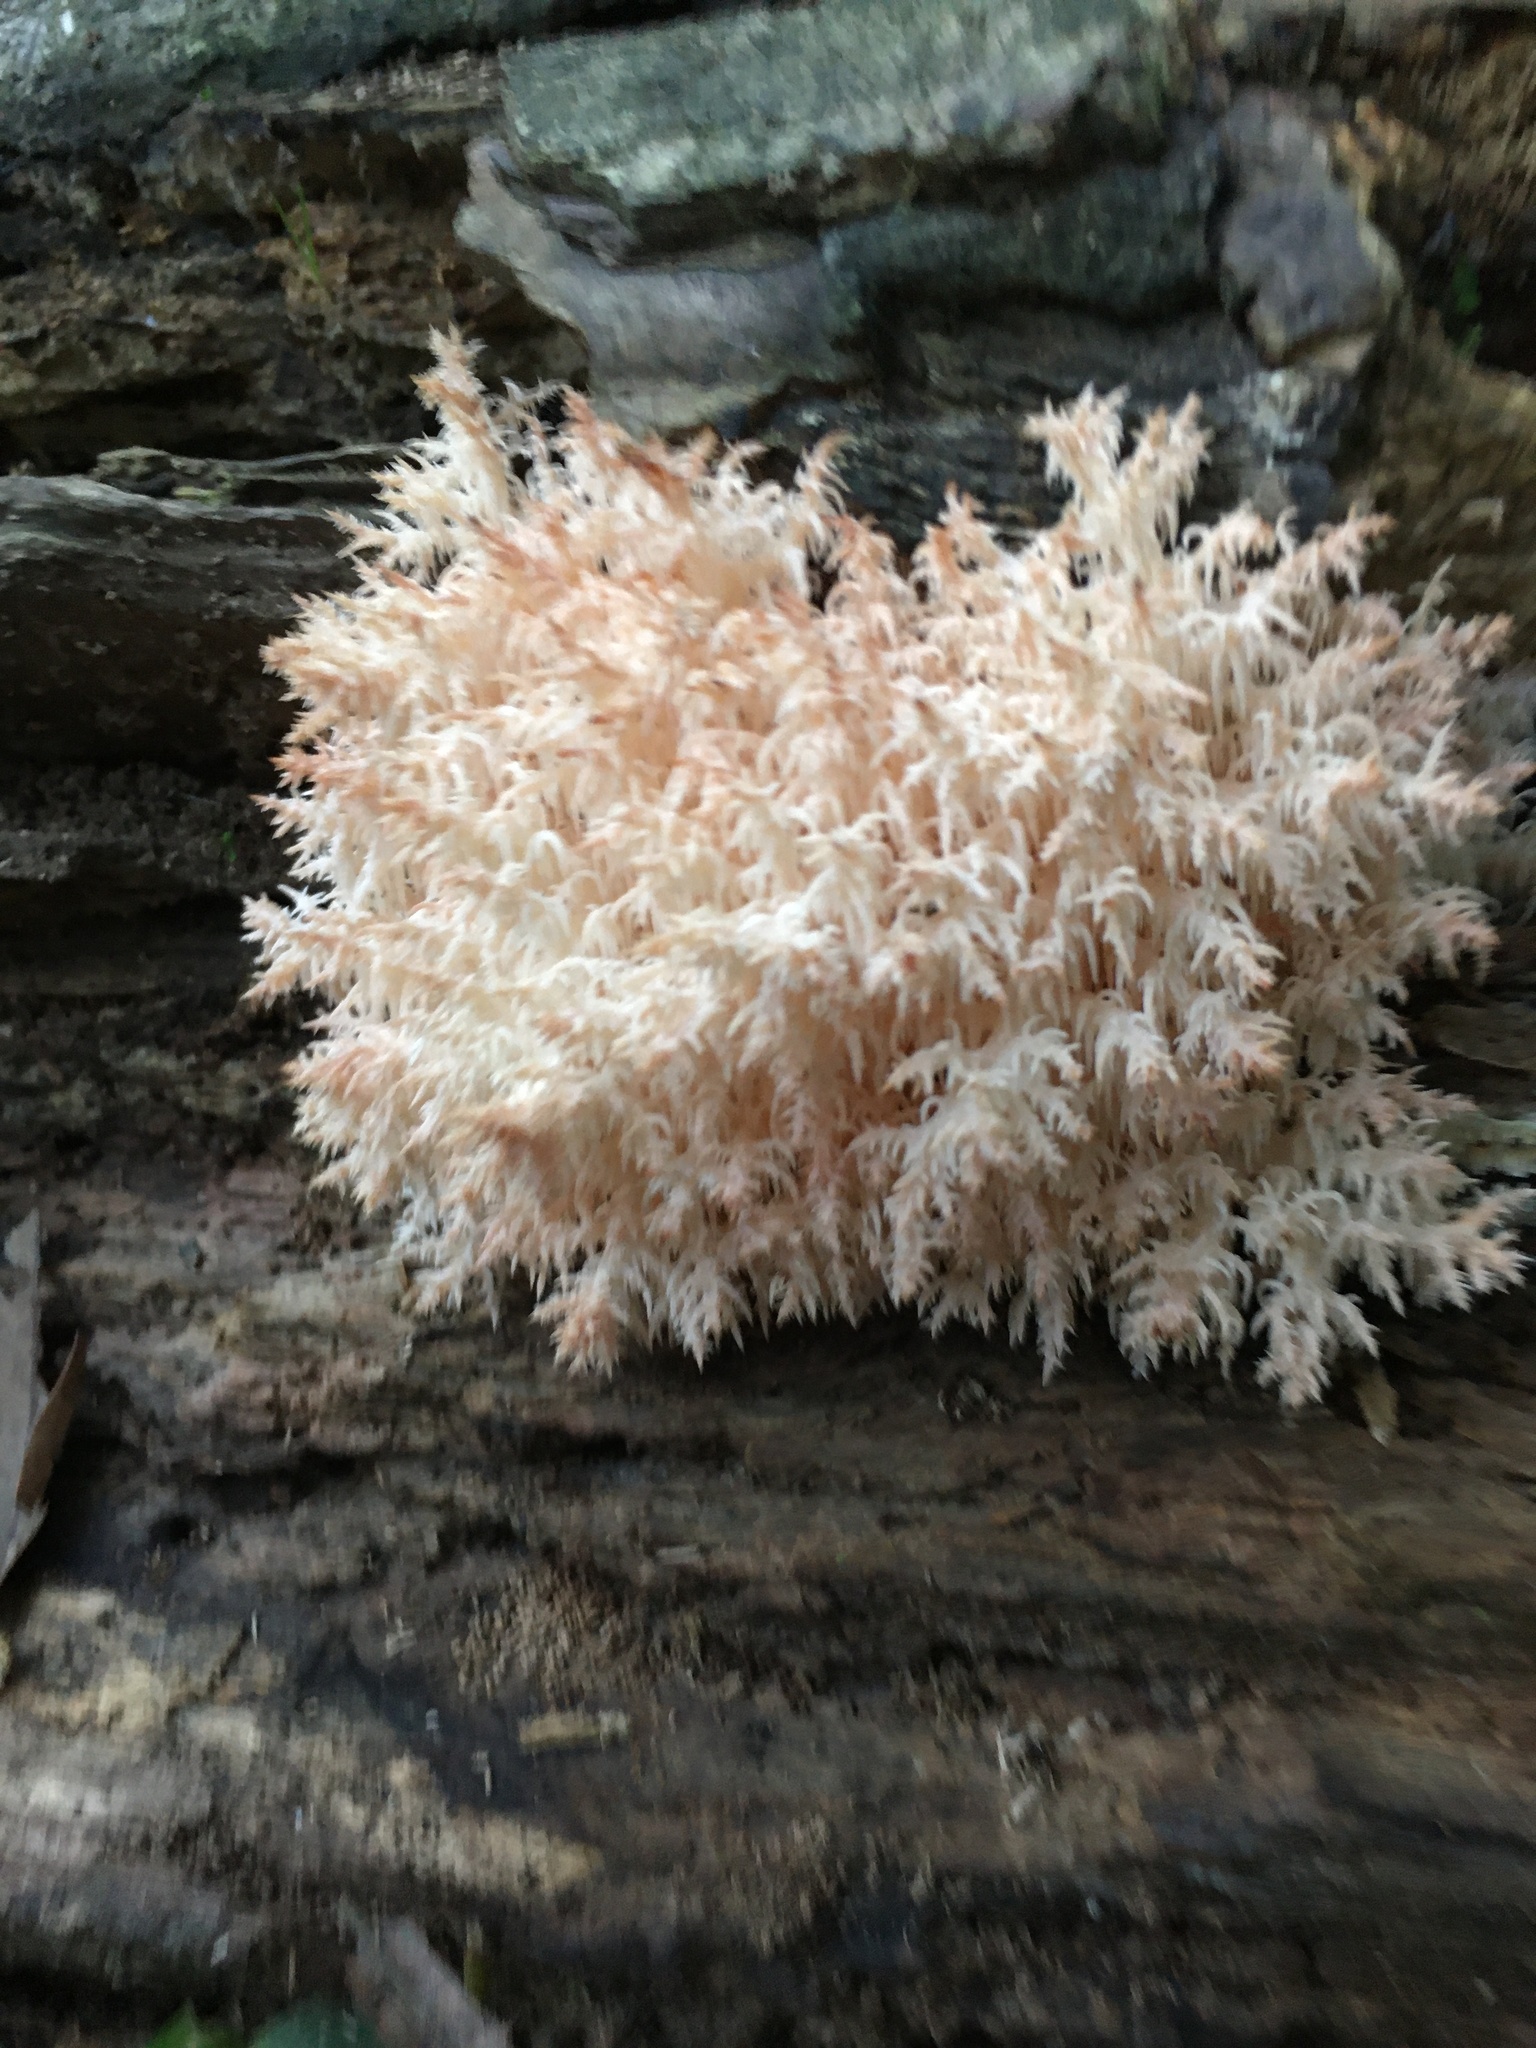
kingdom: Fungi
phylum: Basidiomycota
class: Agaricomycetes
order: Russulales
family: Hericiaceae
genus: Hericium
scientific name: Hericium novae-zealandiae
